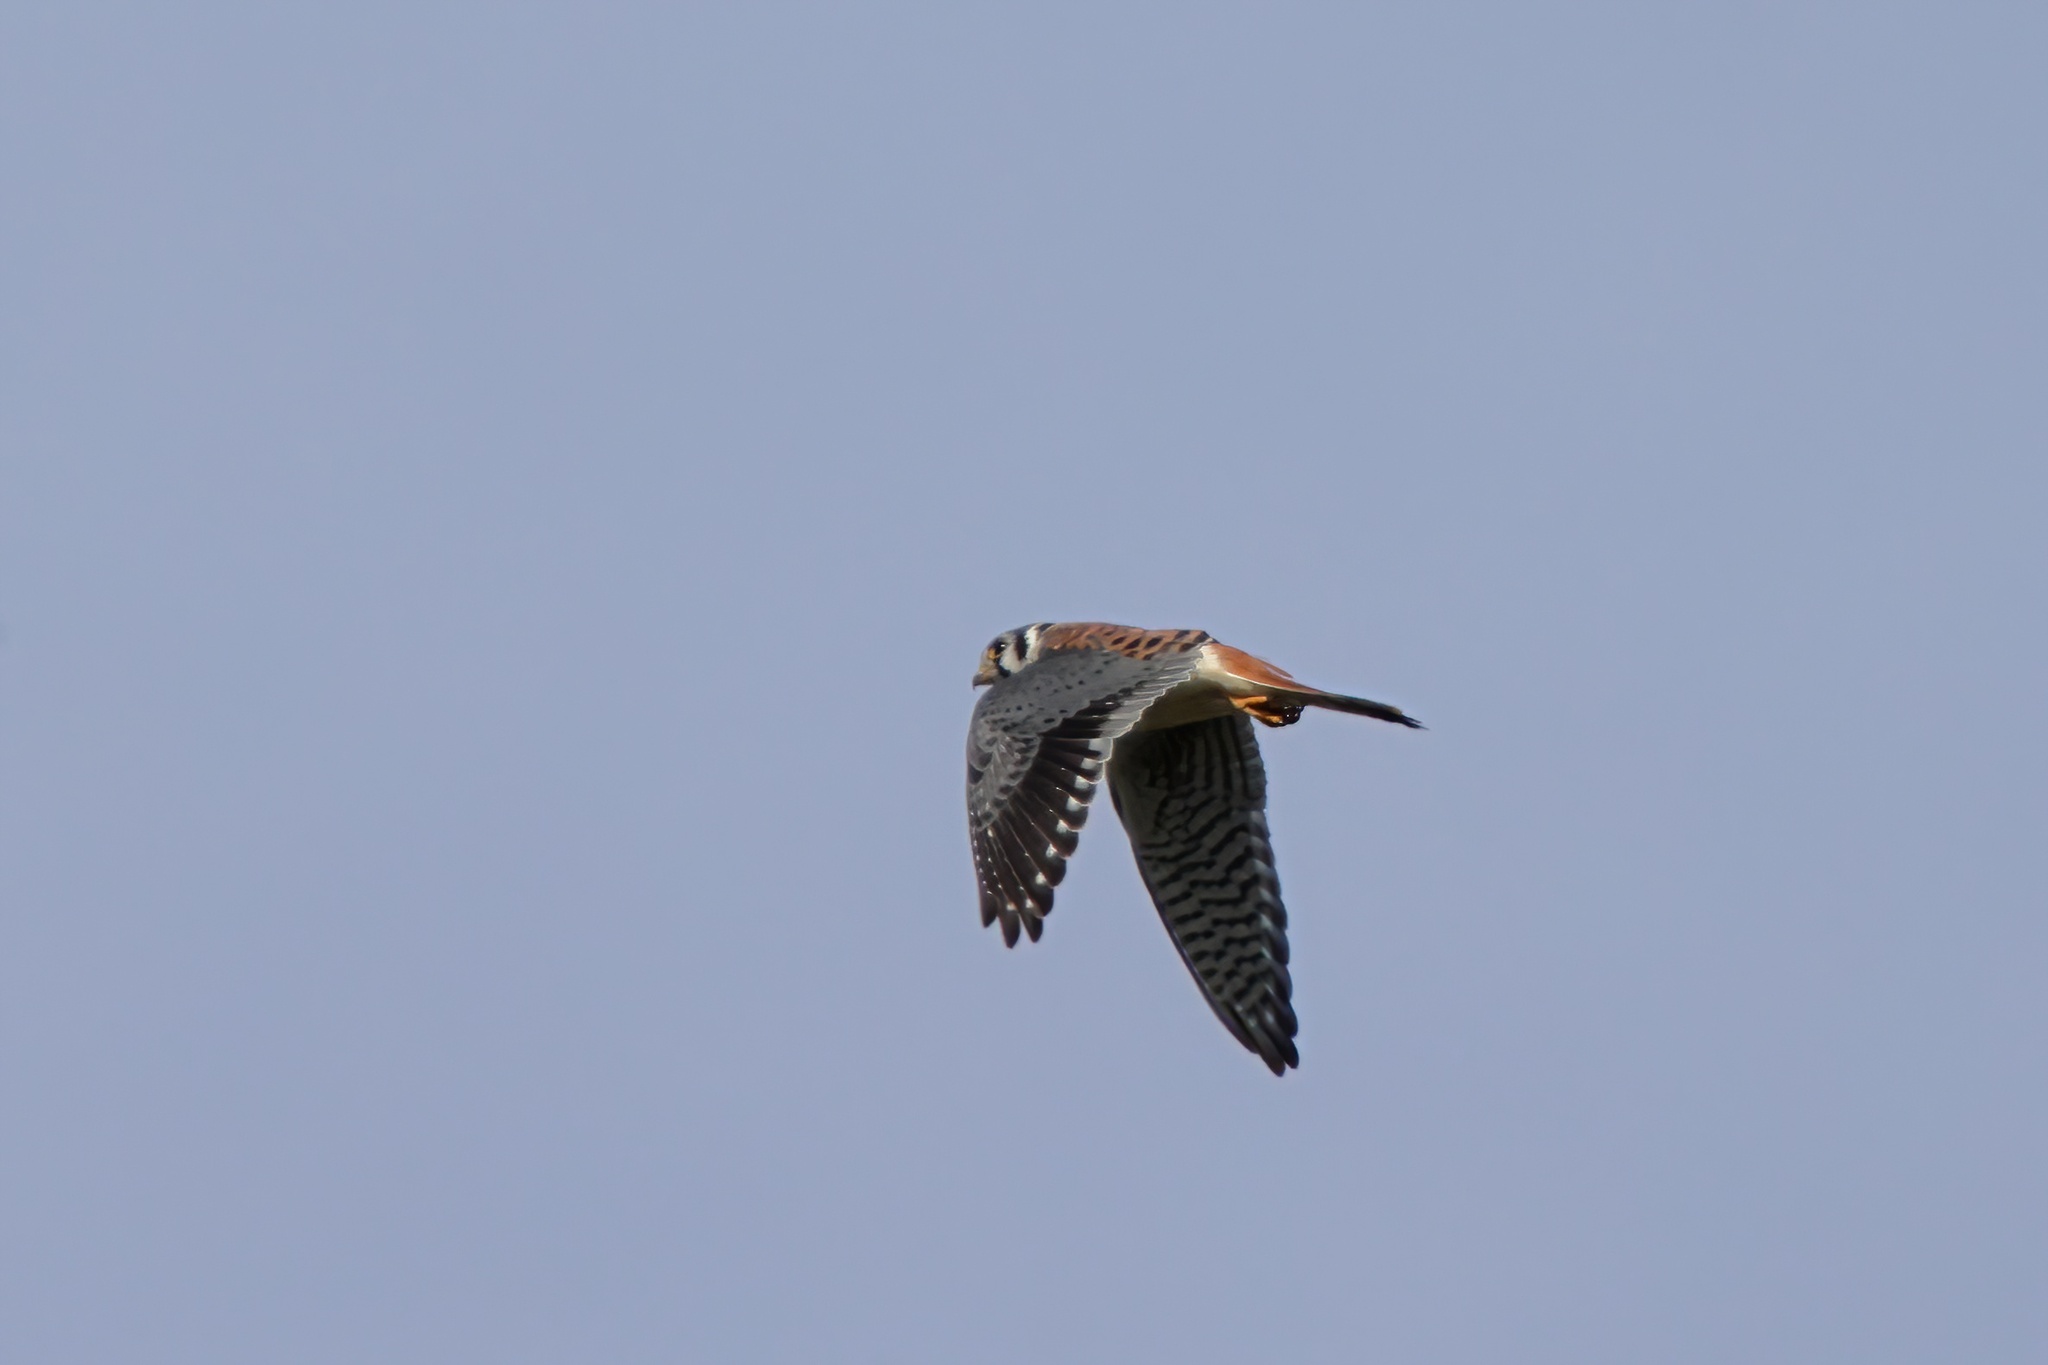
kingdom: Animalia
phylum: Chordata
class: Aves
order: Falconiformes
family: Falconidae
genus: Falco
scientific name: Falco sparverius
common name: American kestrel
